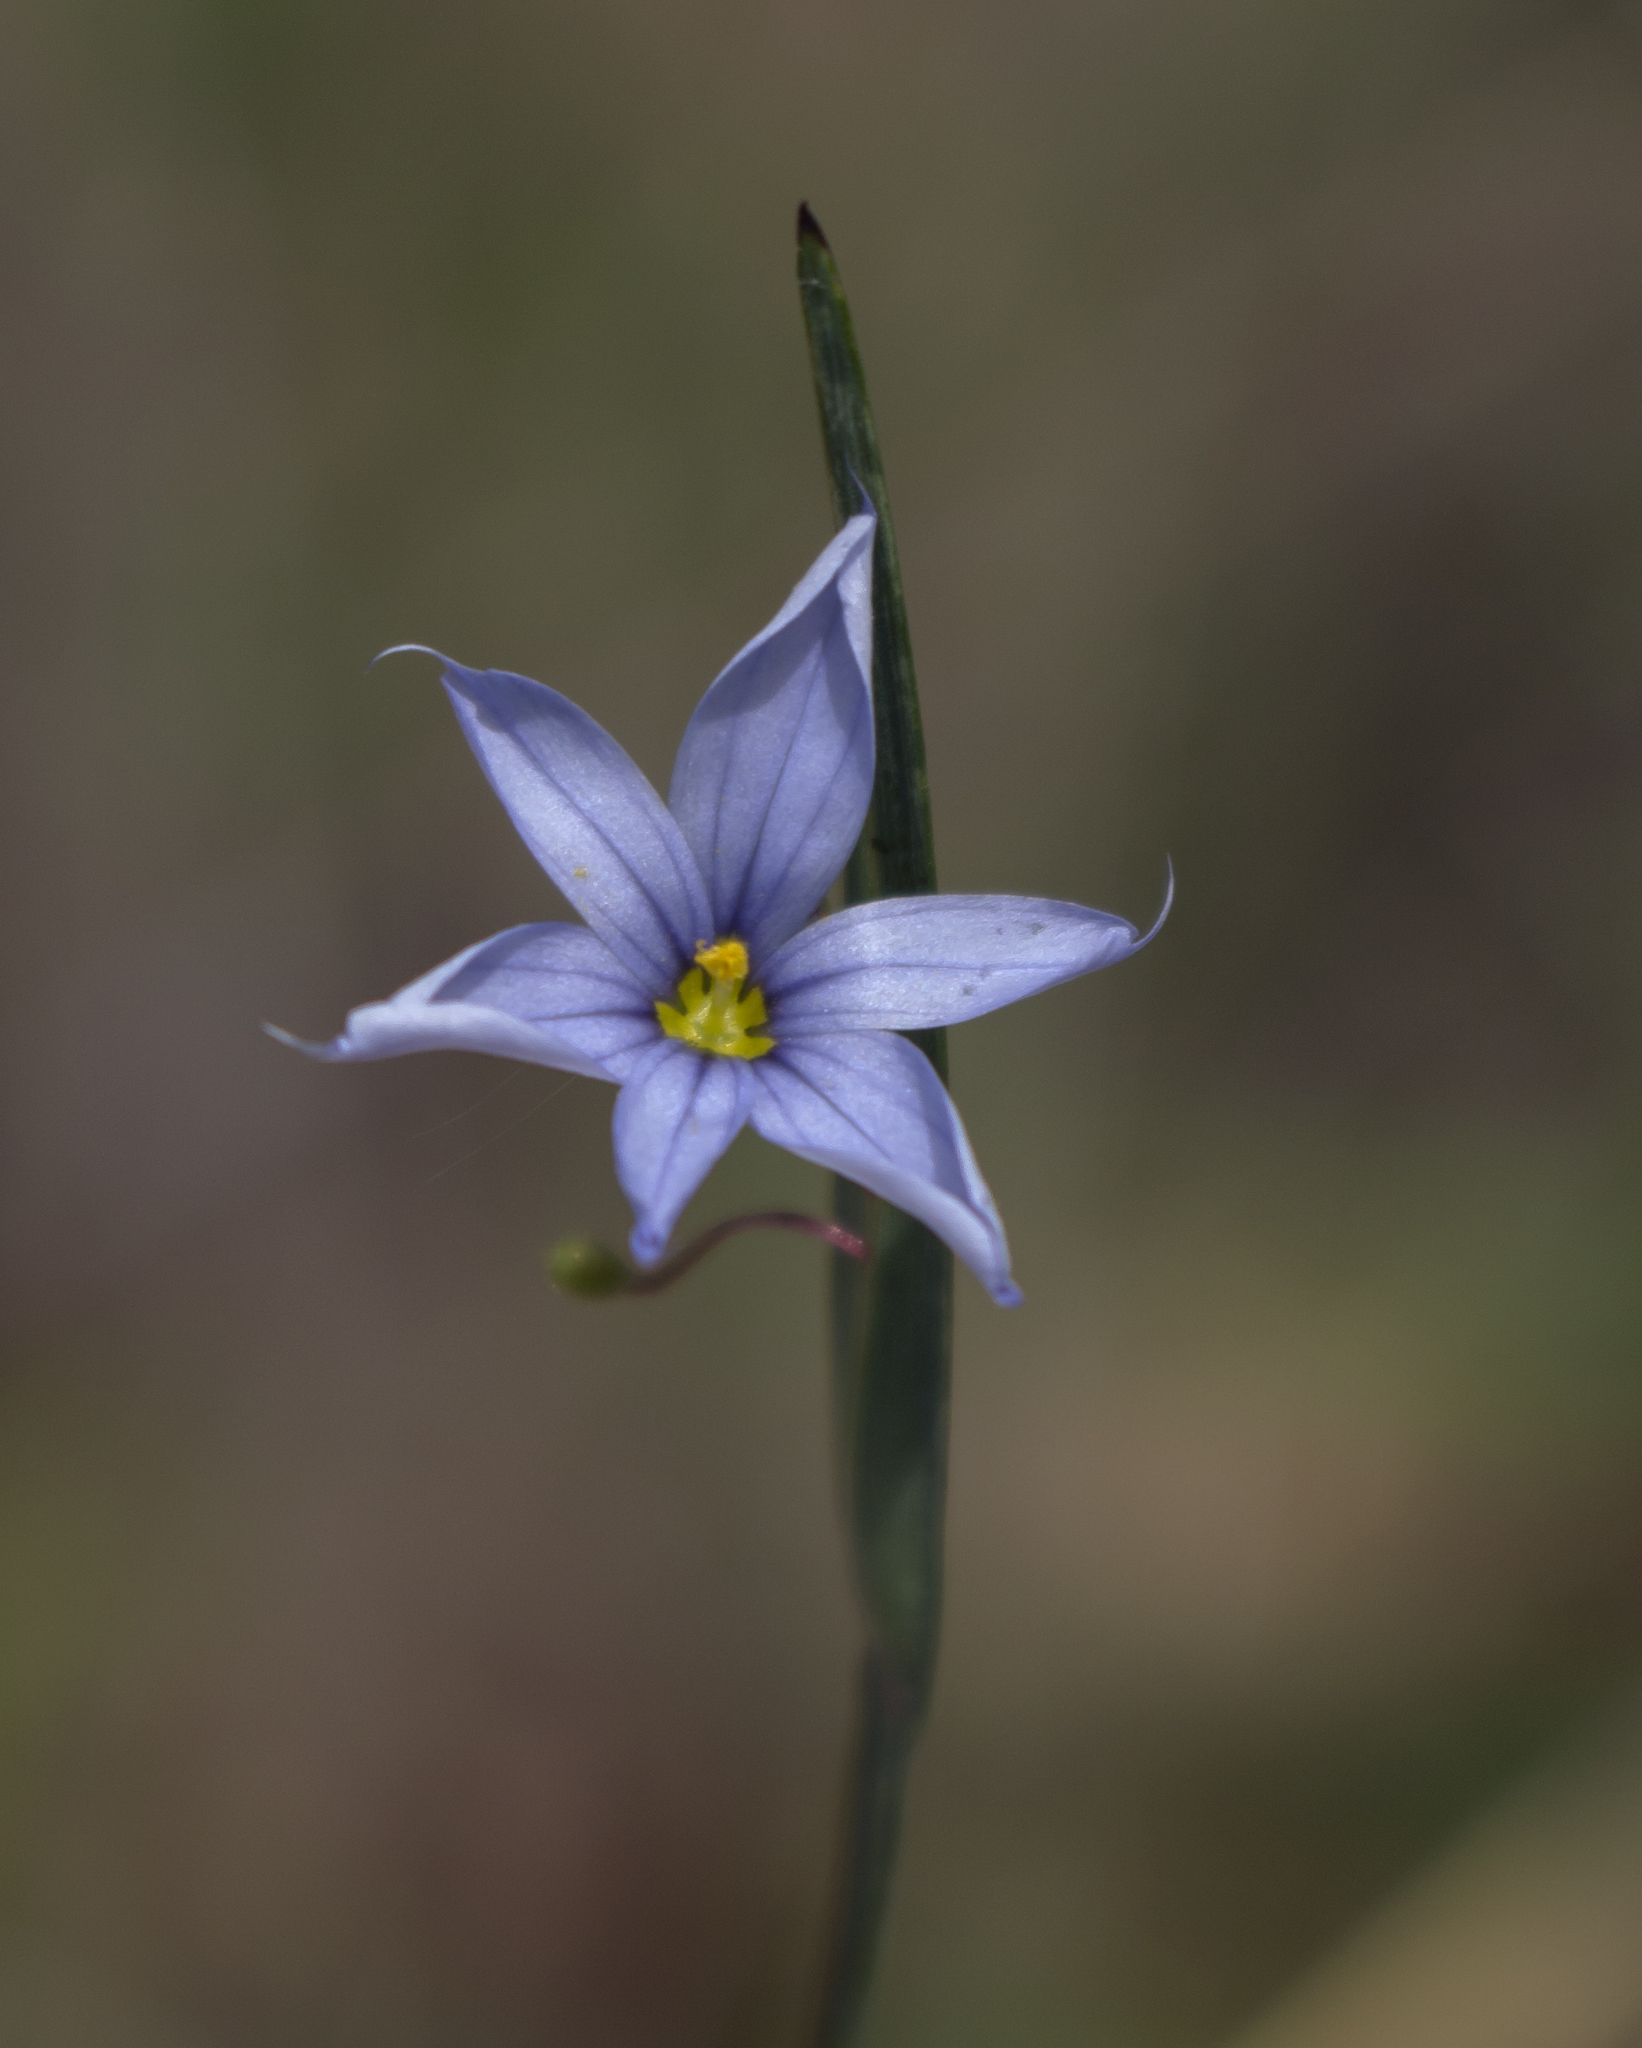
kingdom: Plantae
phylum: Tracheophyta
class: Liliopsida
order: Asparagales
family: Iridaceae
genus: Sisyrinchium
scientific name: Sisyrinchium campestre
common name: Prairie blue-eyed-grass
